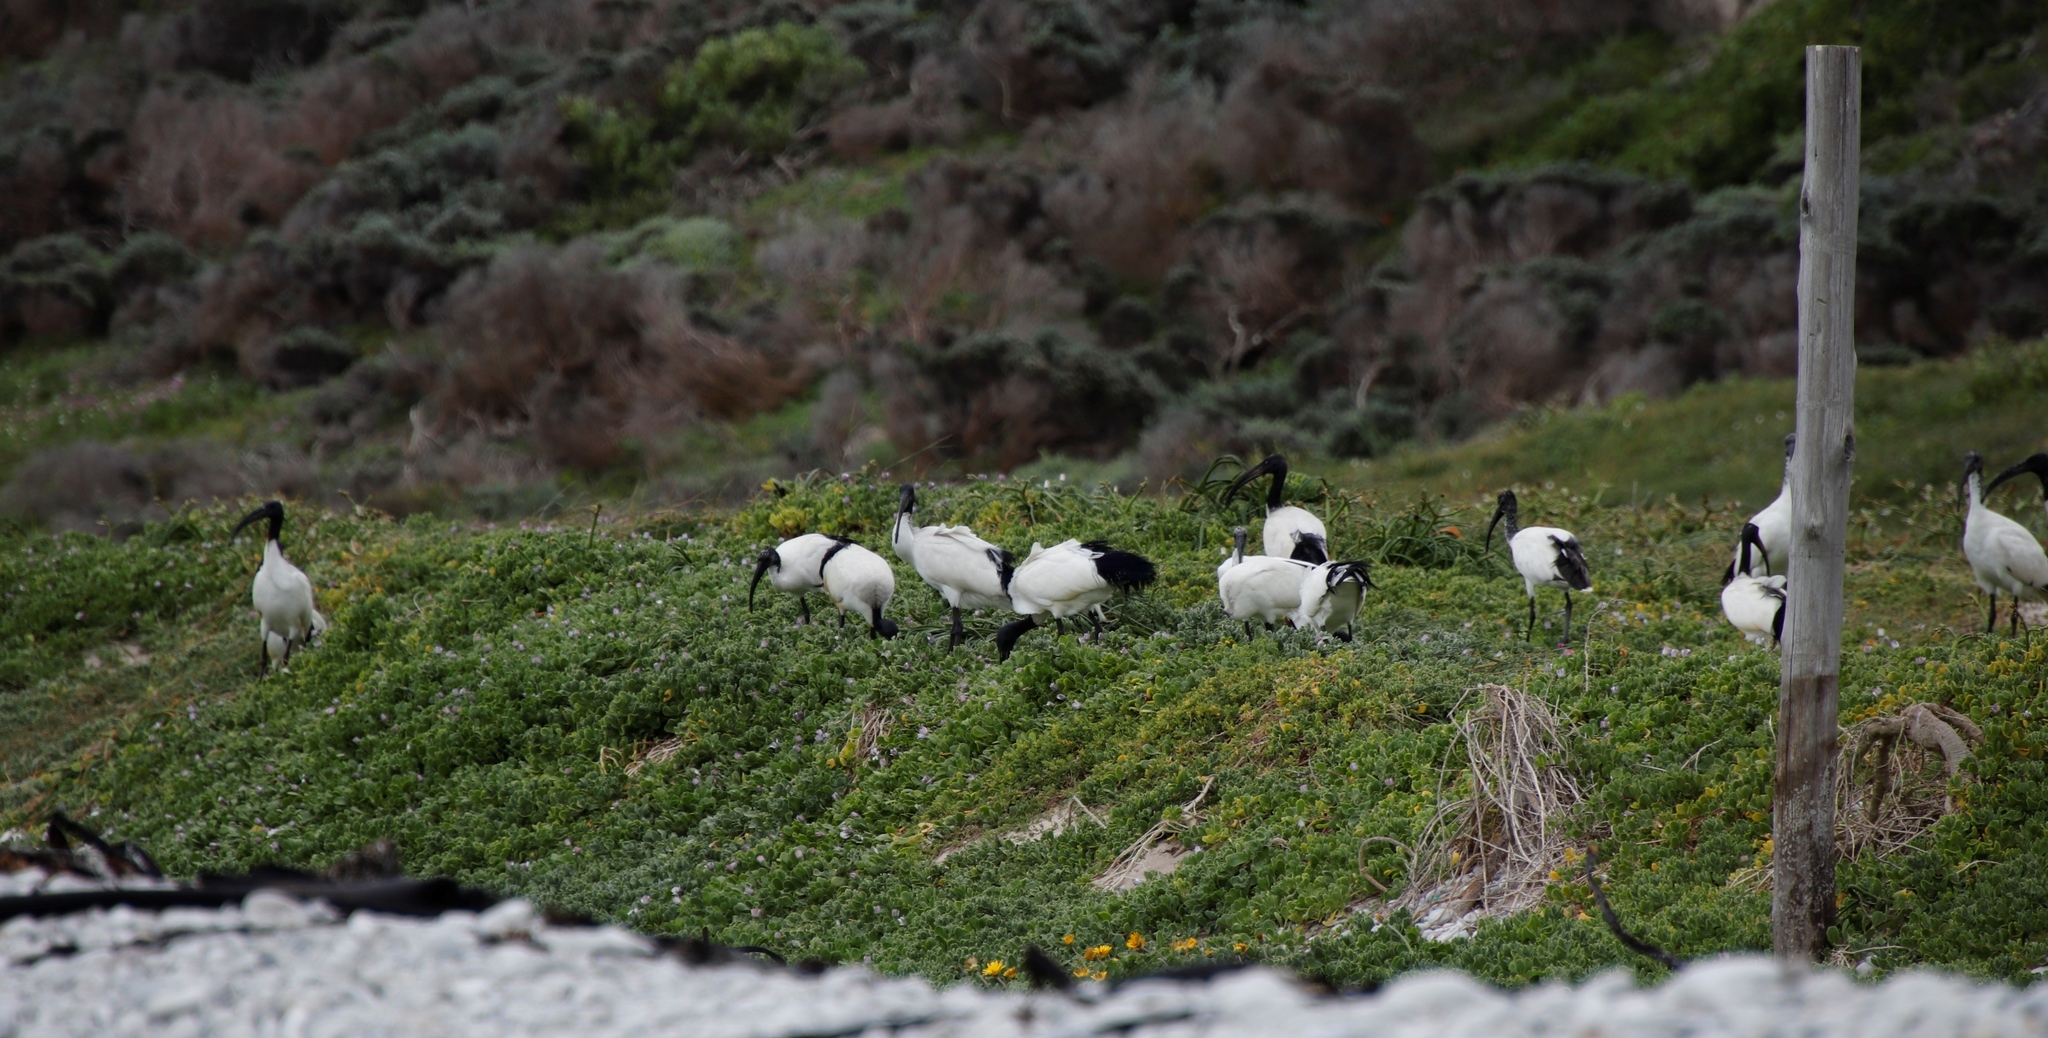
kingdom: Animalia
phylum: Chordata
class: Aves
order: Pelecaniformes
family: Threskiornithidae
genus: Threskiornis
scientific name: Threskiornis aethiopicus
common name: Sacred ibis
